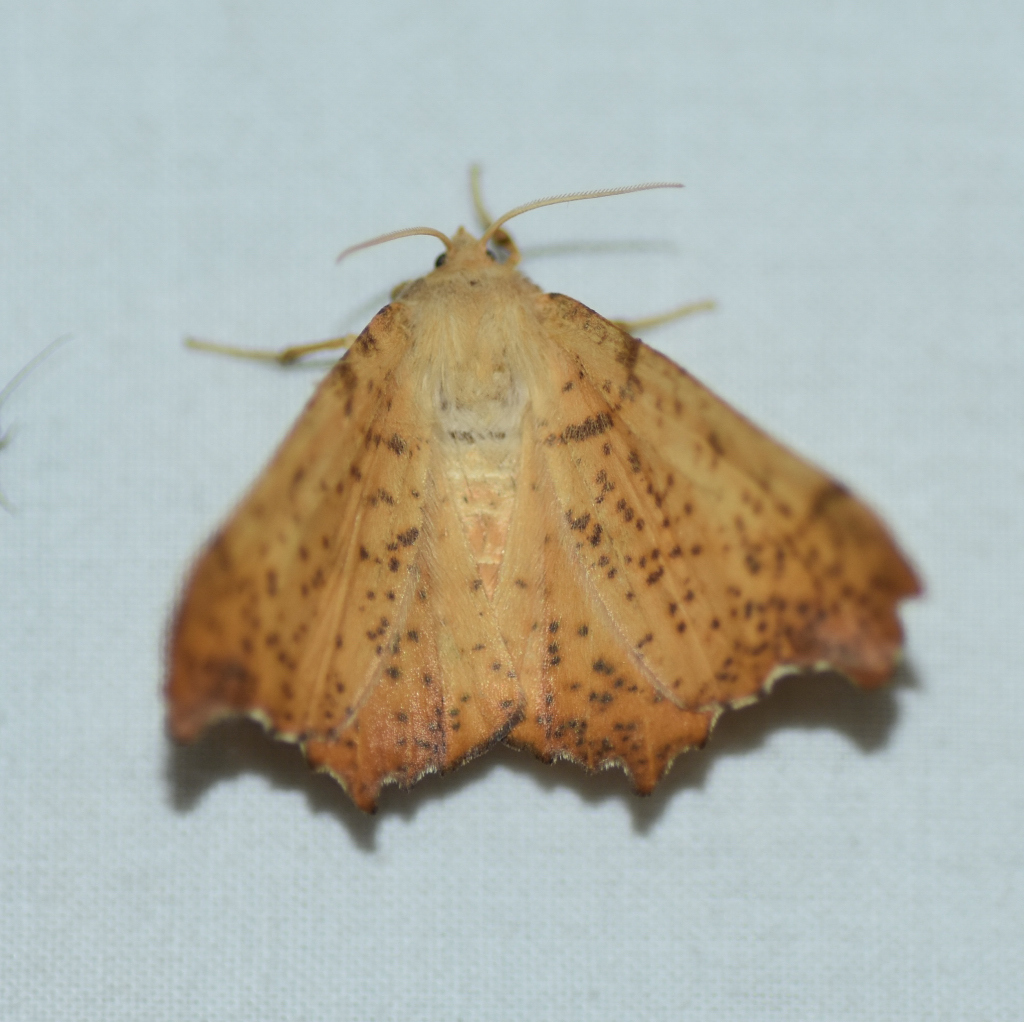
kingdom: Animalia
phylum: Arthropoda
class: Insecta
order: Lepidoptera
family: Geometridae
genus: Ennomos
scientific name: Ennomos magnaria
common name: Maple spanworm
